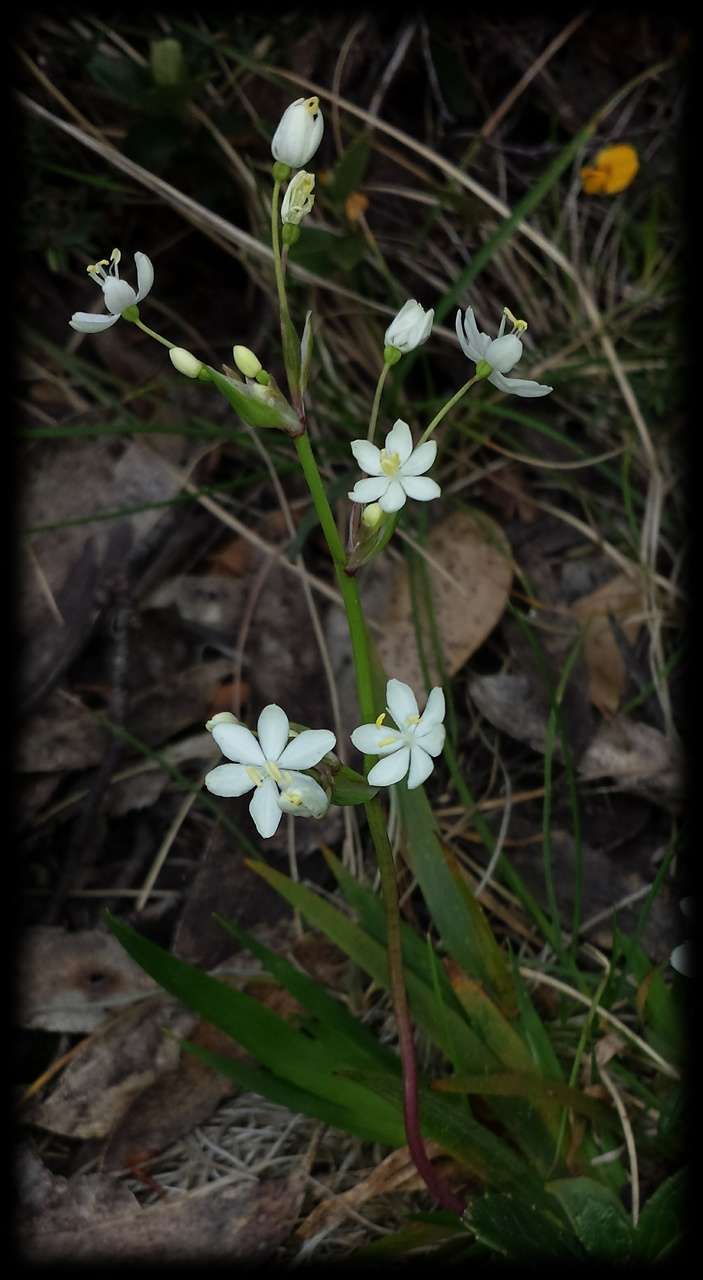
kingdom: Plantae
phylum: Tracheophyta
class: Liliopsida
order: Asparagales
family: Iridaceae
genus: Libertia
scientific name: Libertia pulchella
